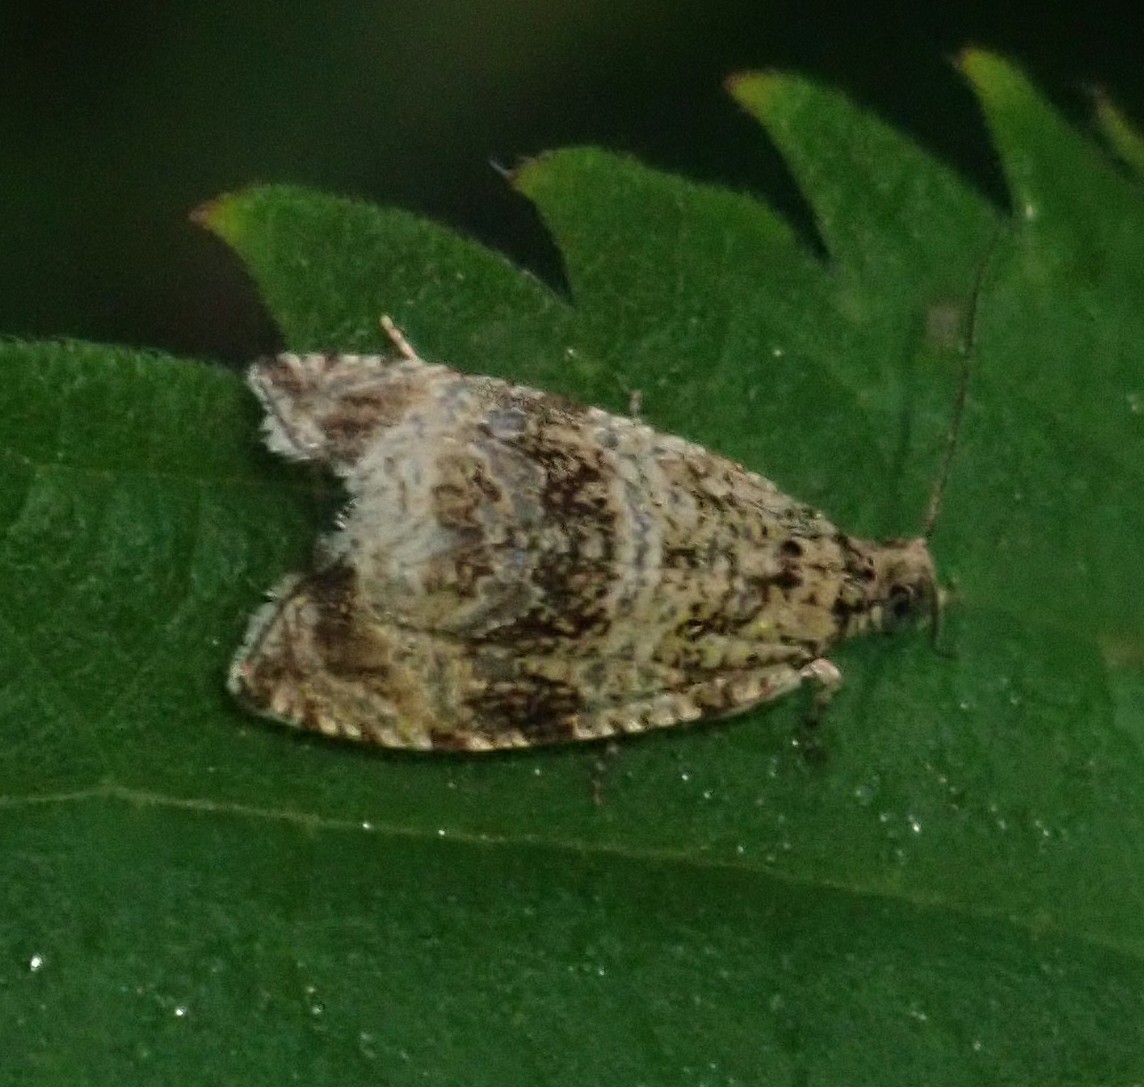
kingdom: Animalia
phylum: Arthropoda
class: Insecta
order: Lepidoptera
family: Tortricidae
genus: Syricoris
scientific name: Syricoris lacunana
